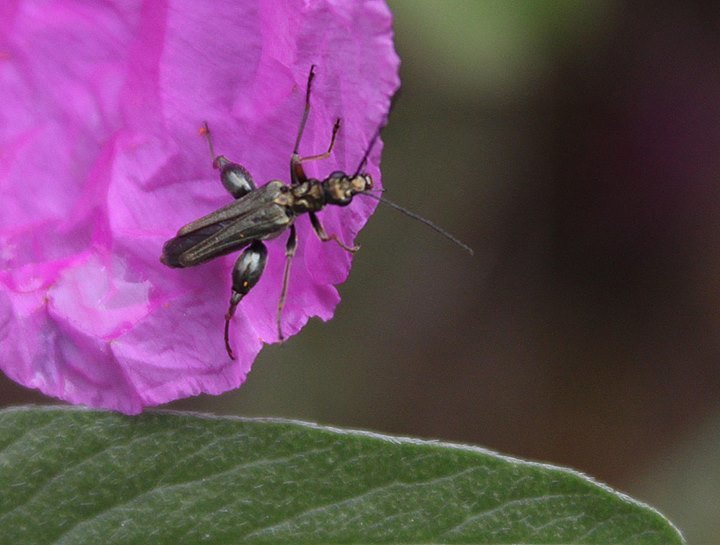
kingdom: Animalia
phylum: Arthropoda
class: Insecta
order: Coleoptera
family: Oedemeridae
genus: Oedemera
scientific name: Oedemera flavipes
